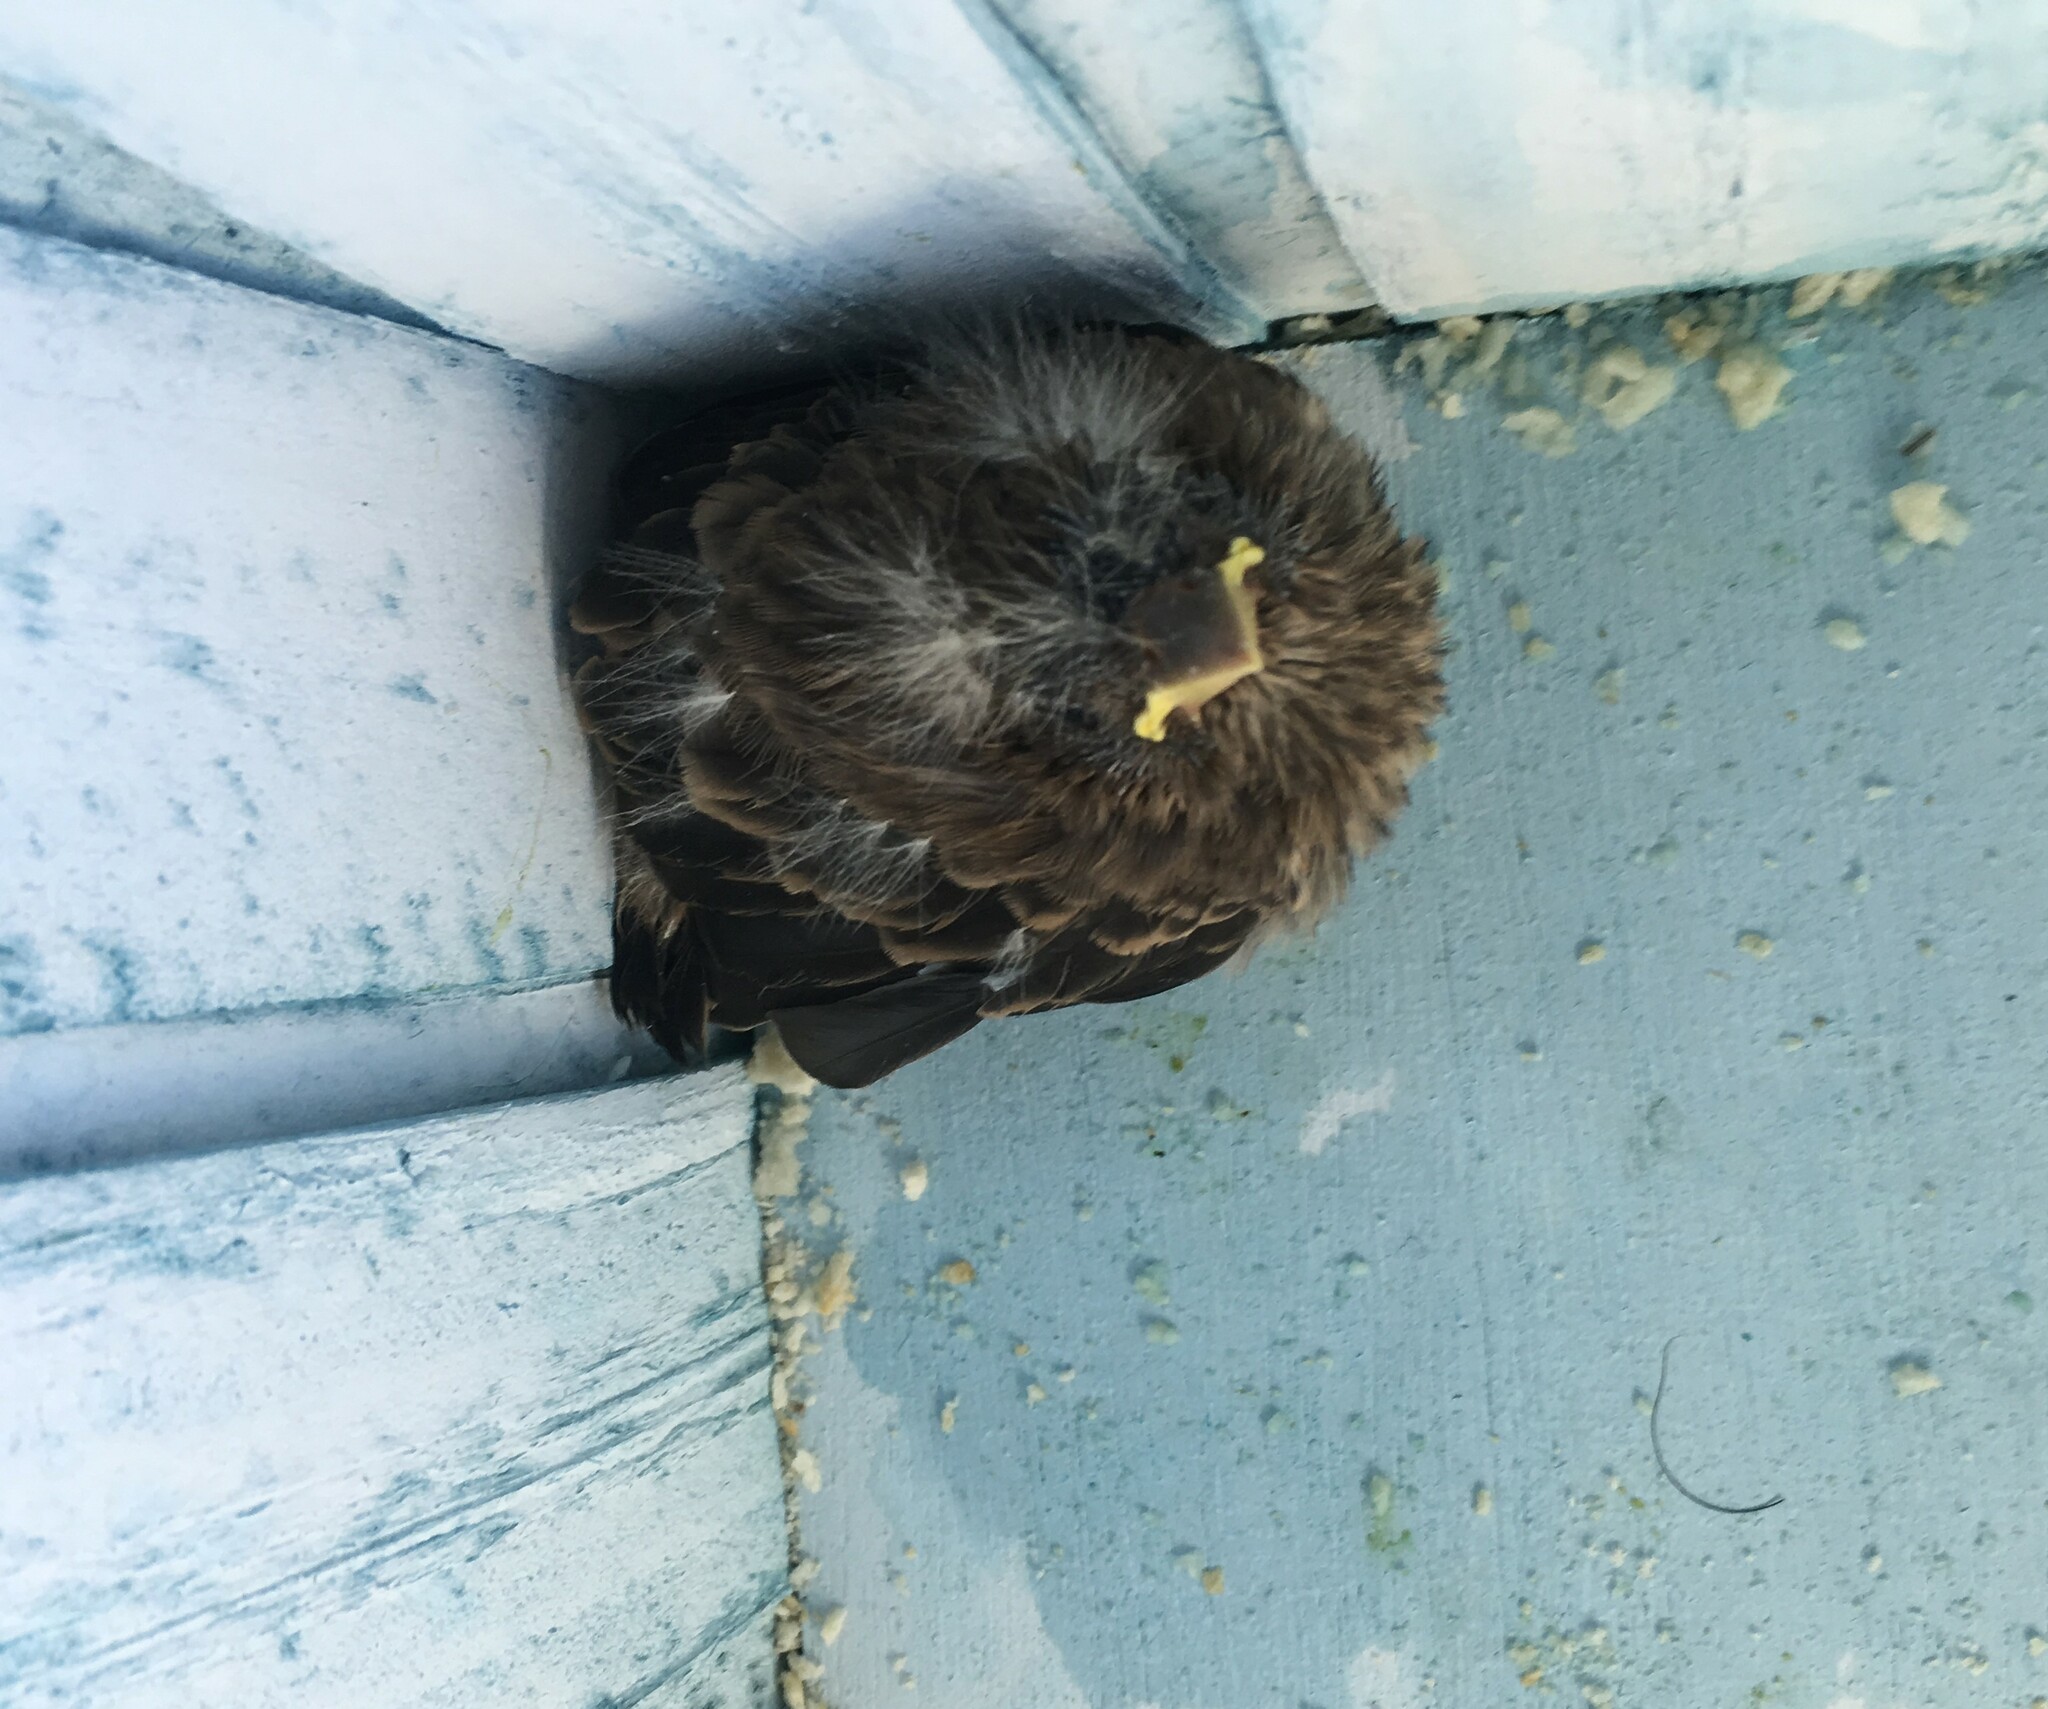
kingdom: Animalia
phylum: Chordata
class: Aves
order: Passeriformes
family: Fringillidae
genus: Haemorhous
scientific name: Haemorhous mexicanus
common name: House finch
